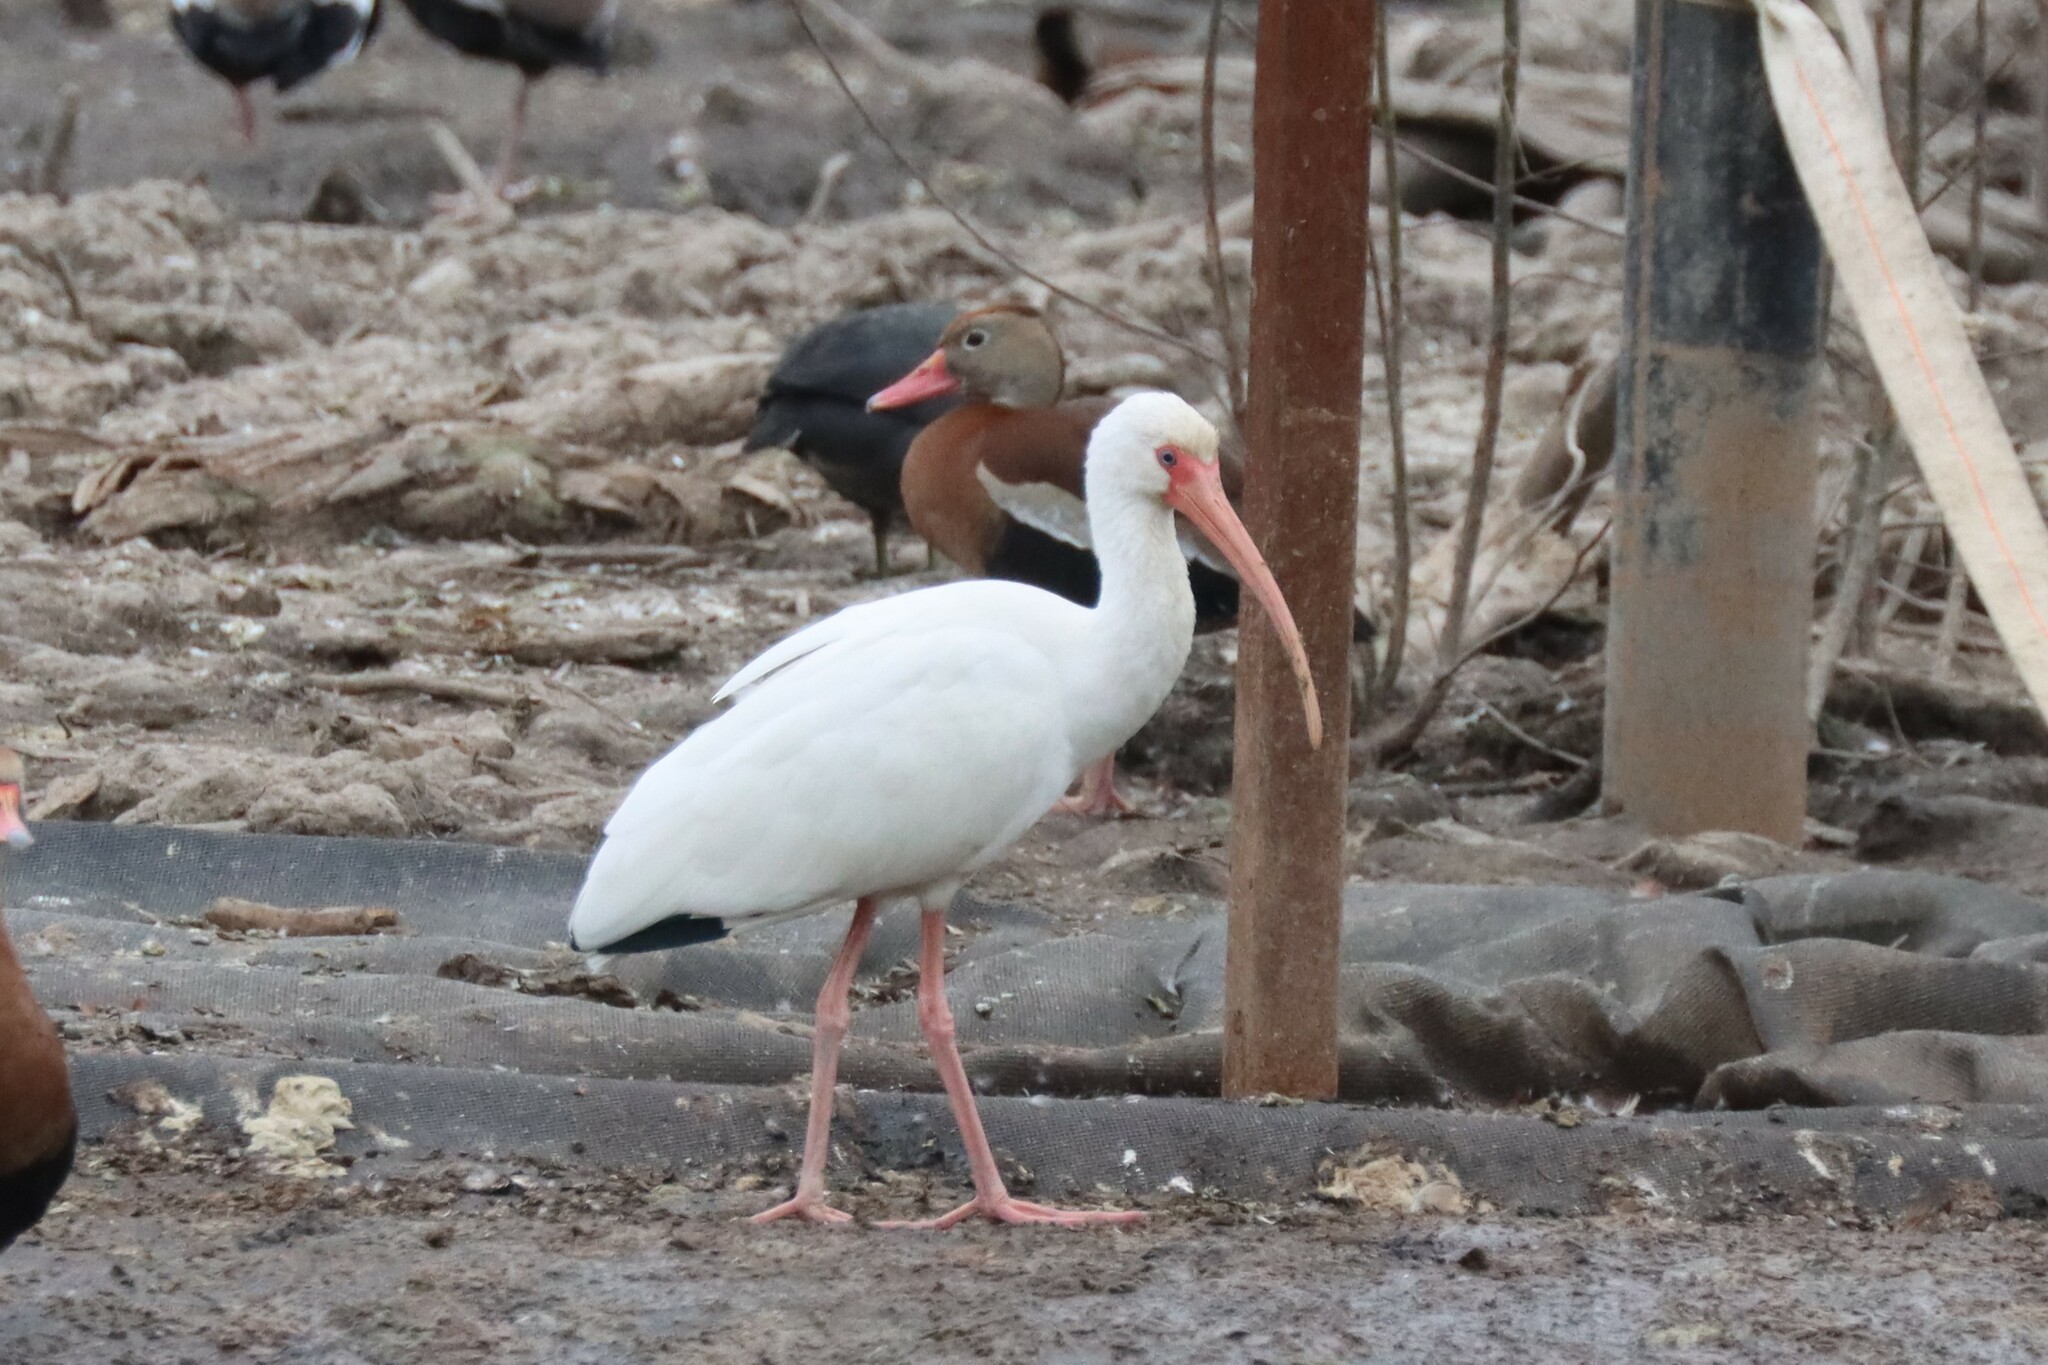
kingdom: Animalia
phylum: Chordata
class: Aves
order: Pelecaniformes
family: Threskiornithidae
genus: Eudocimus
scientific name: Eudocimus albus
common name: White ibis
